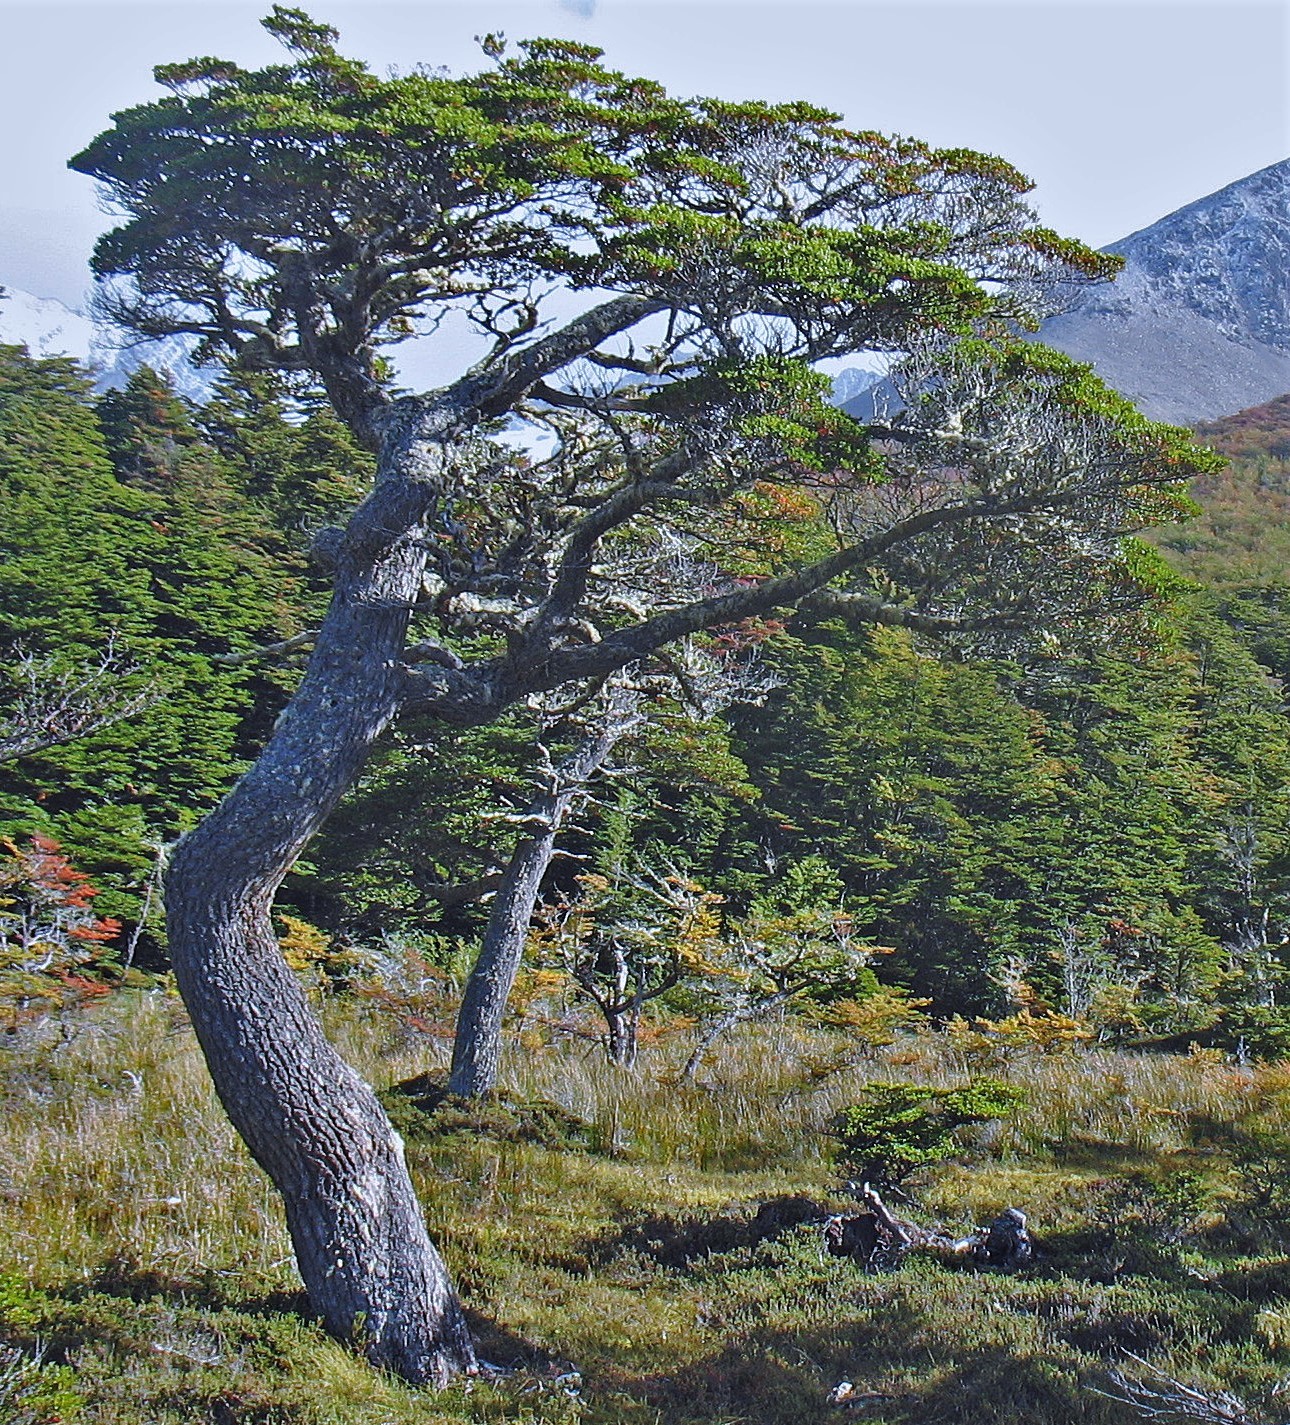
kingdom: Plantae
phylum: Tracheophyta
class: Magnoliopsida
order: Fagales
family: Nothofagaceae
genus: Nothofagus
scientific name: Nothofagus betuloides
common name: Magellan's beech
